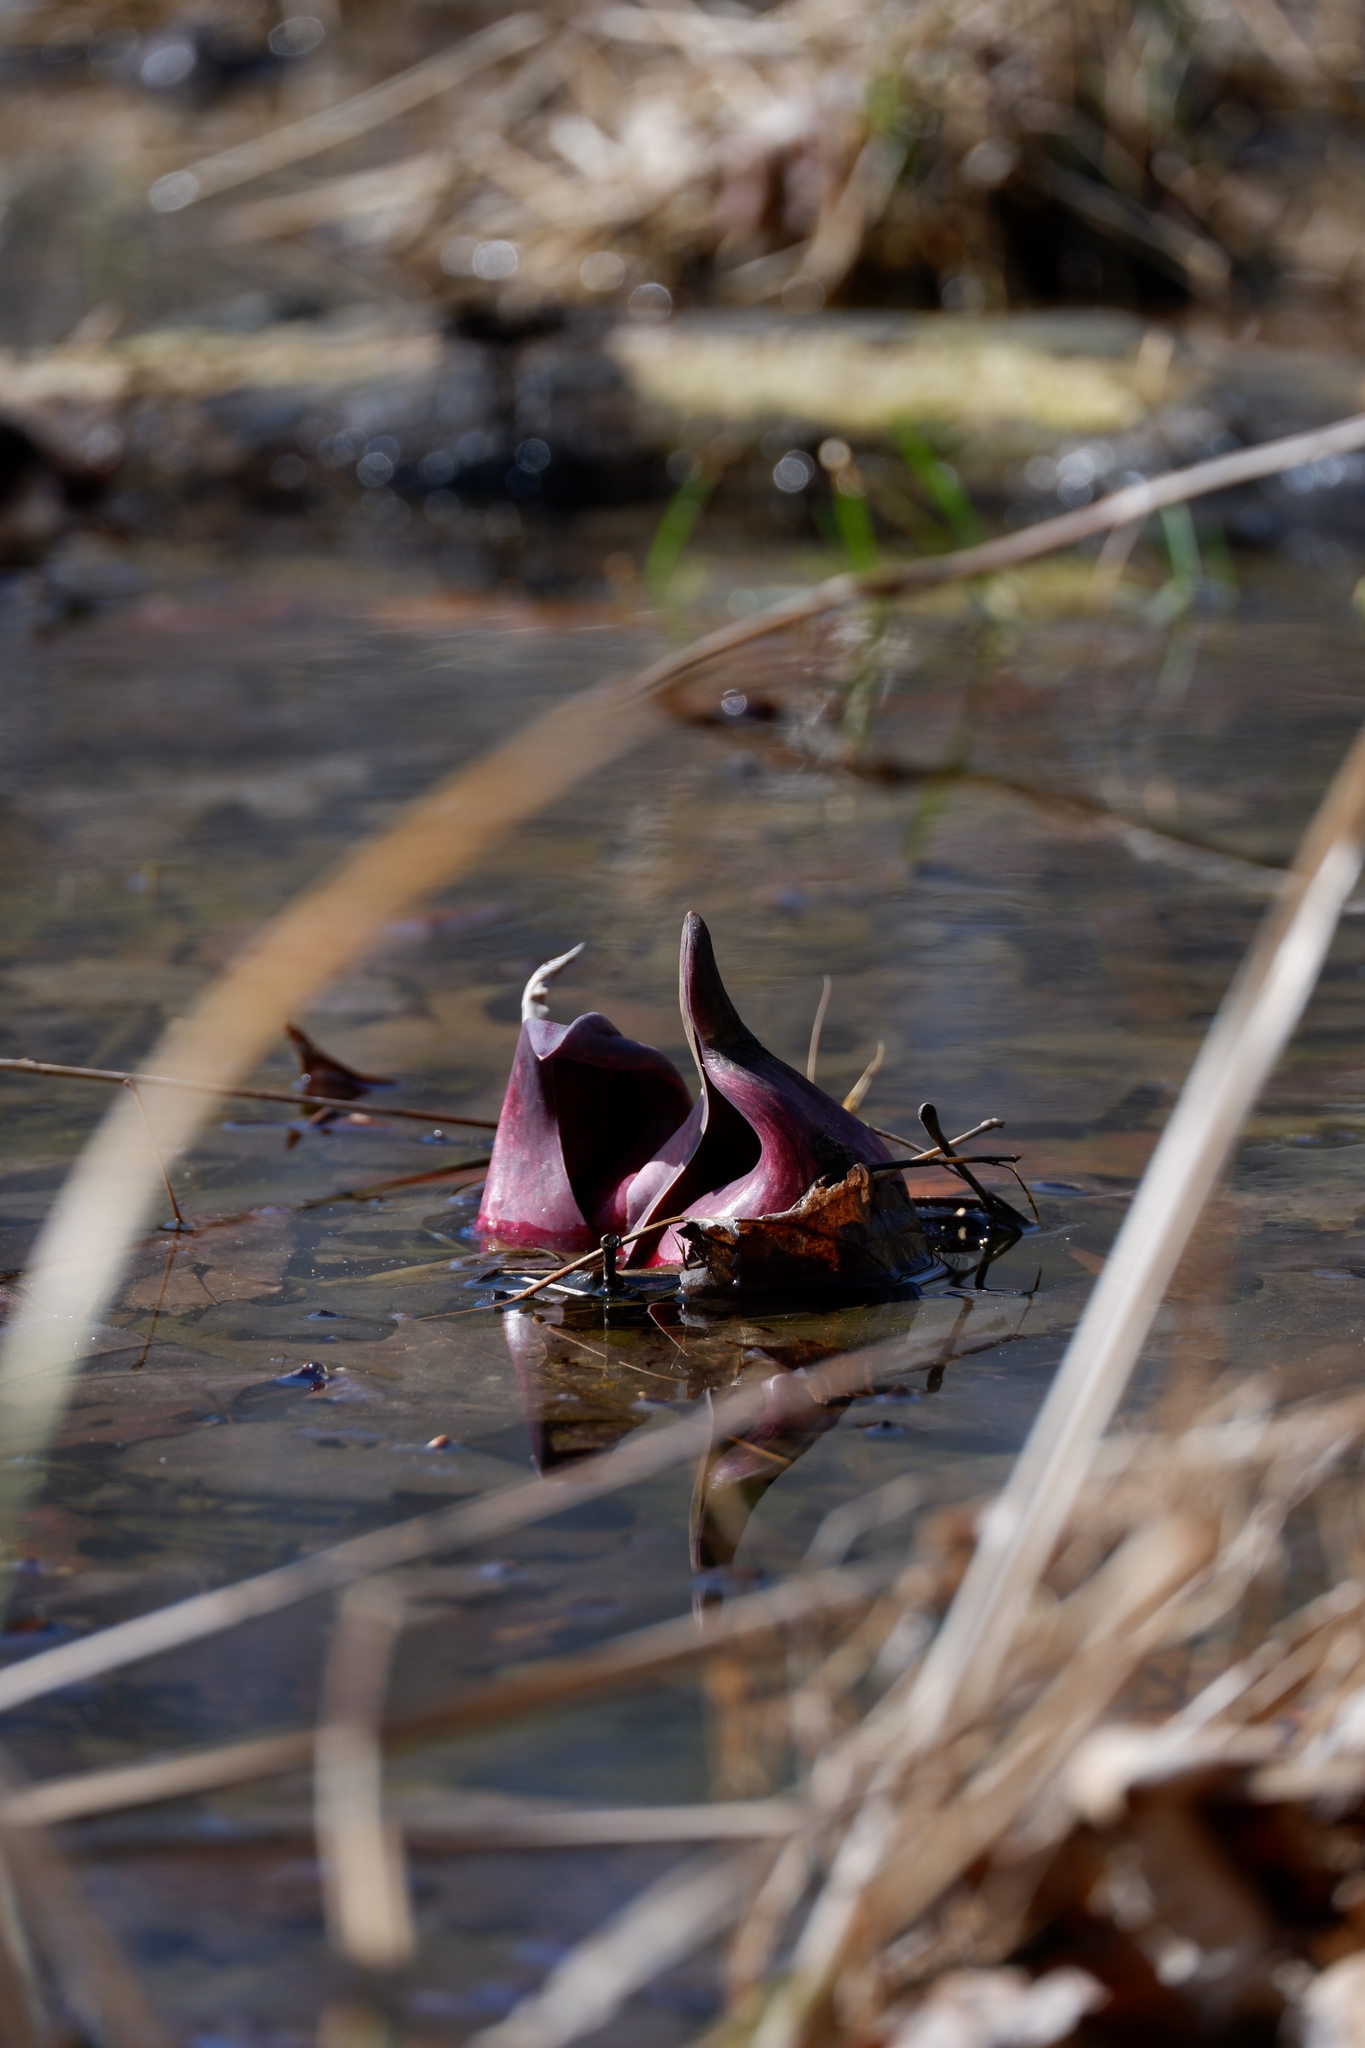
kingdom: Plantae
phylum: Tracheophyta
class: Liliopsida
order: Alismatales
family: Araceae
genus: Symplocarpus
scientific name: Symplocarpus foetidus
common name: Eastern skunk cabbage
